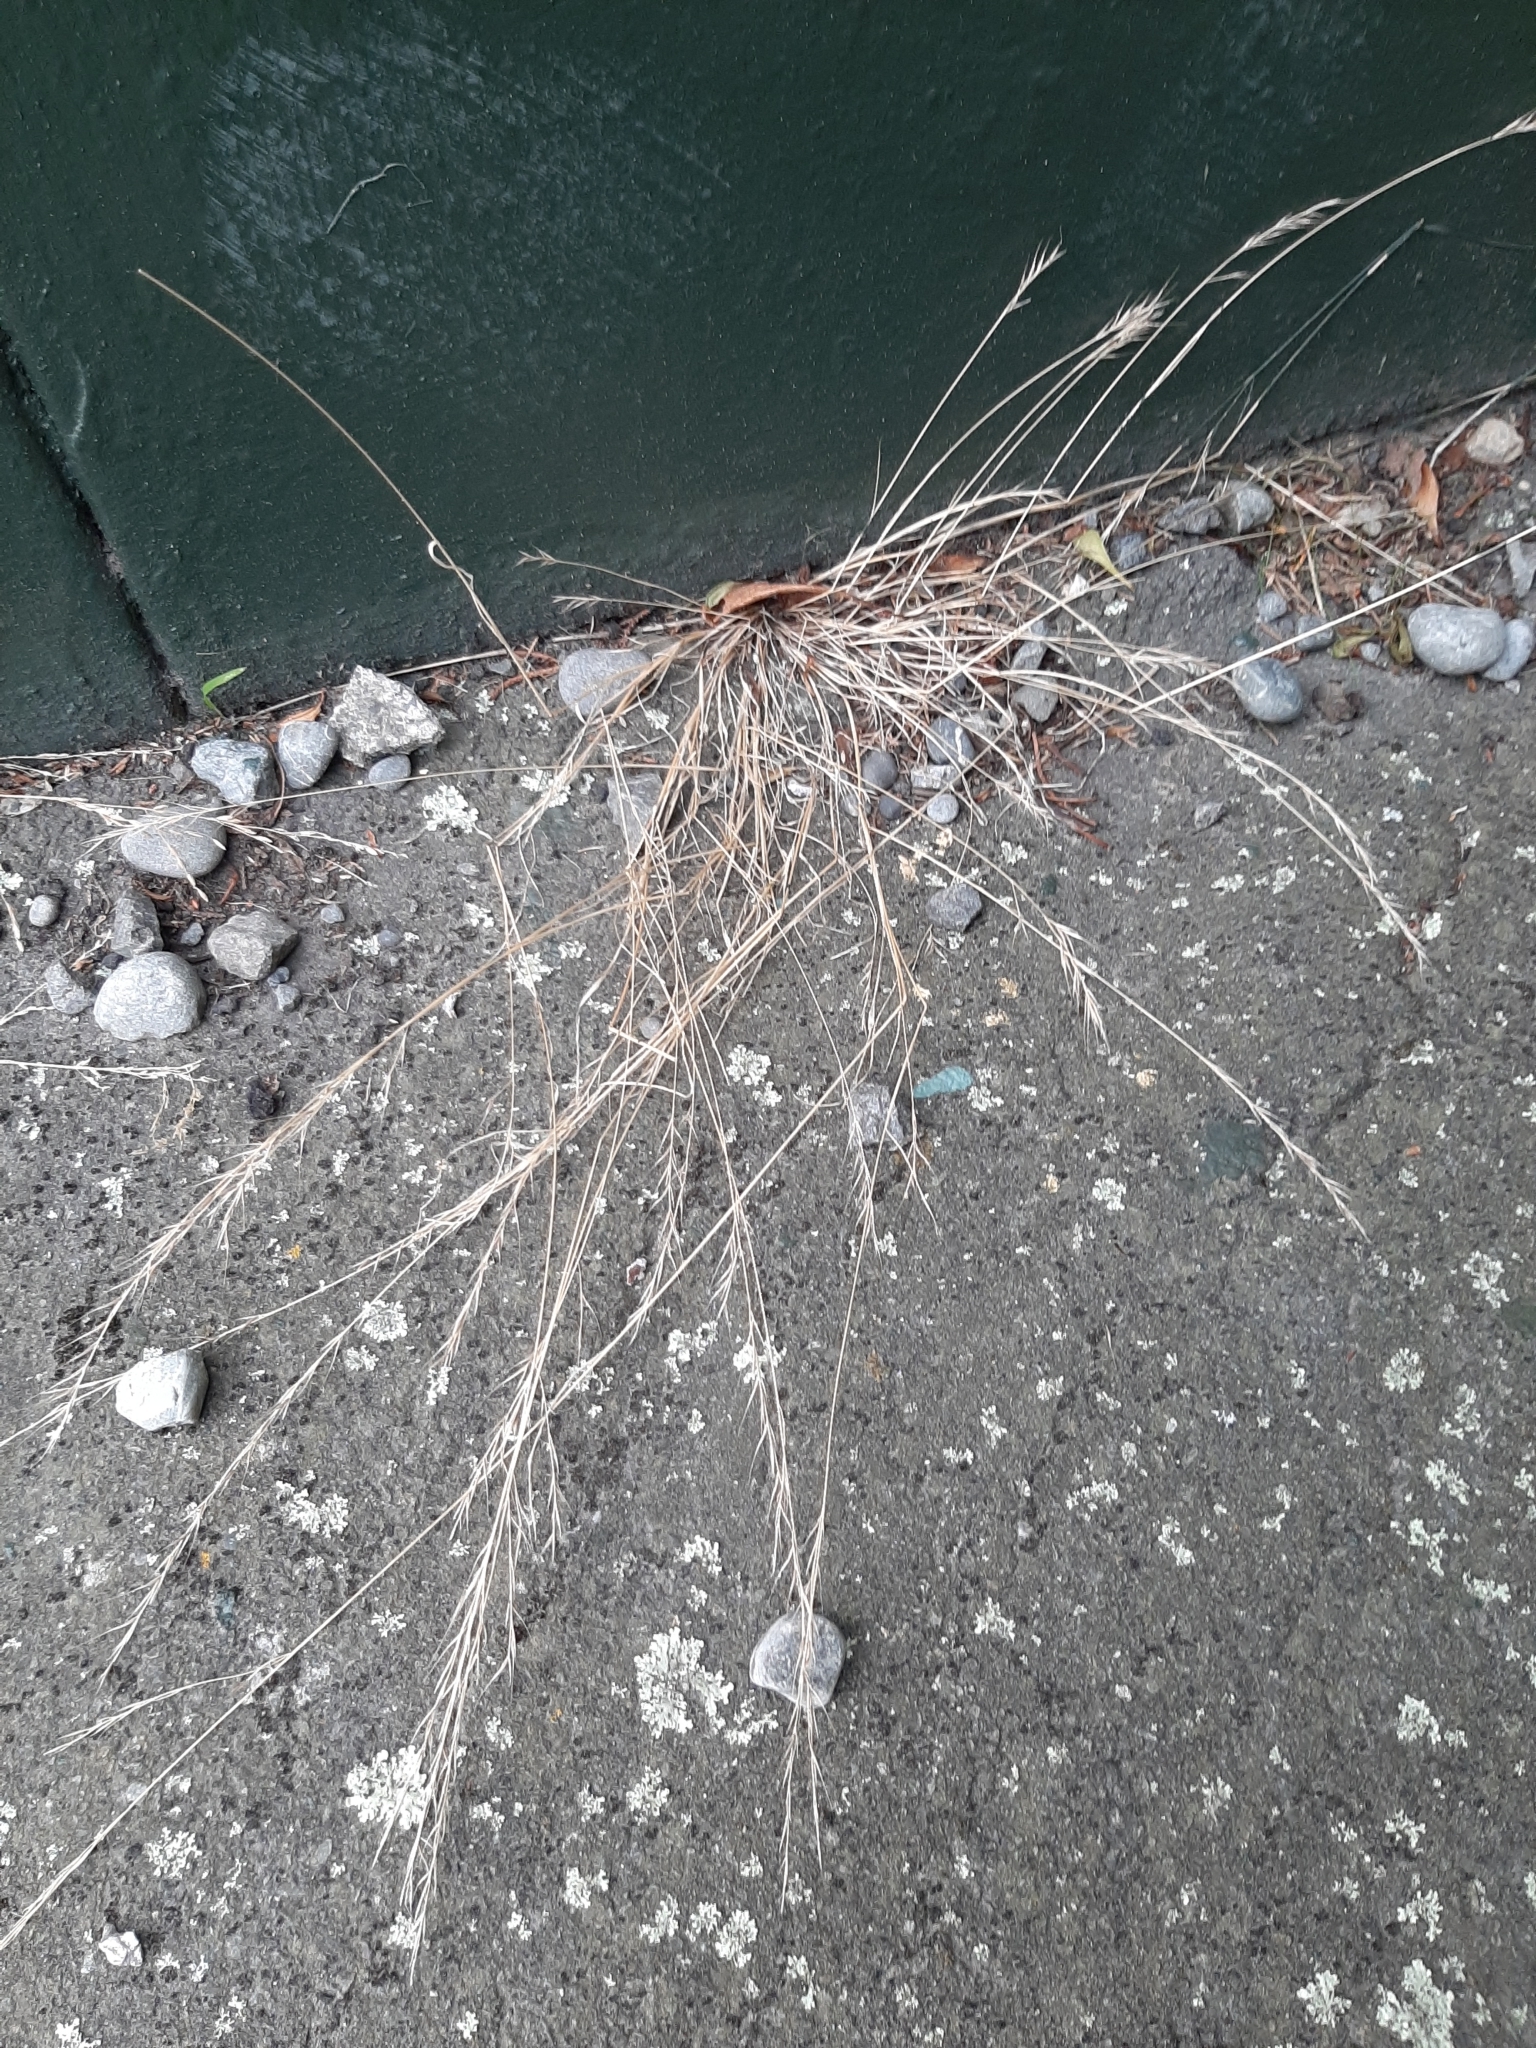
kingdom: Plantae
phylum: Tracheophyta
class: Liliopsida
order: Poales
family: Poaceae
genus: Festuca
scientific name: Festuca myuros
